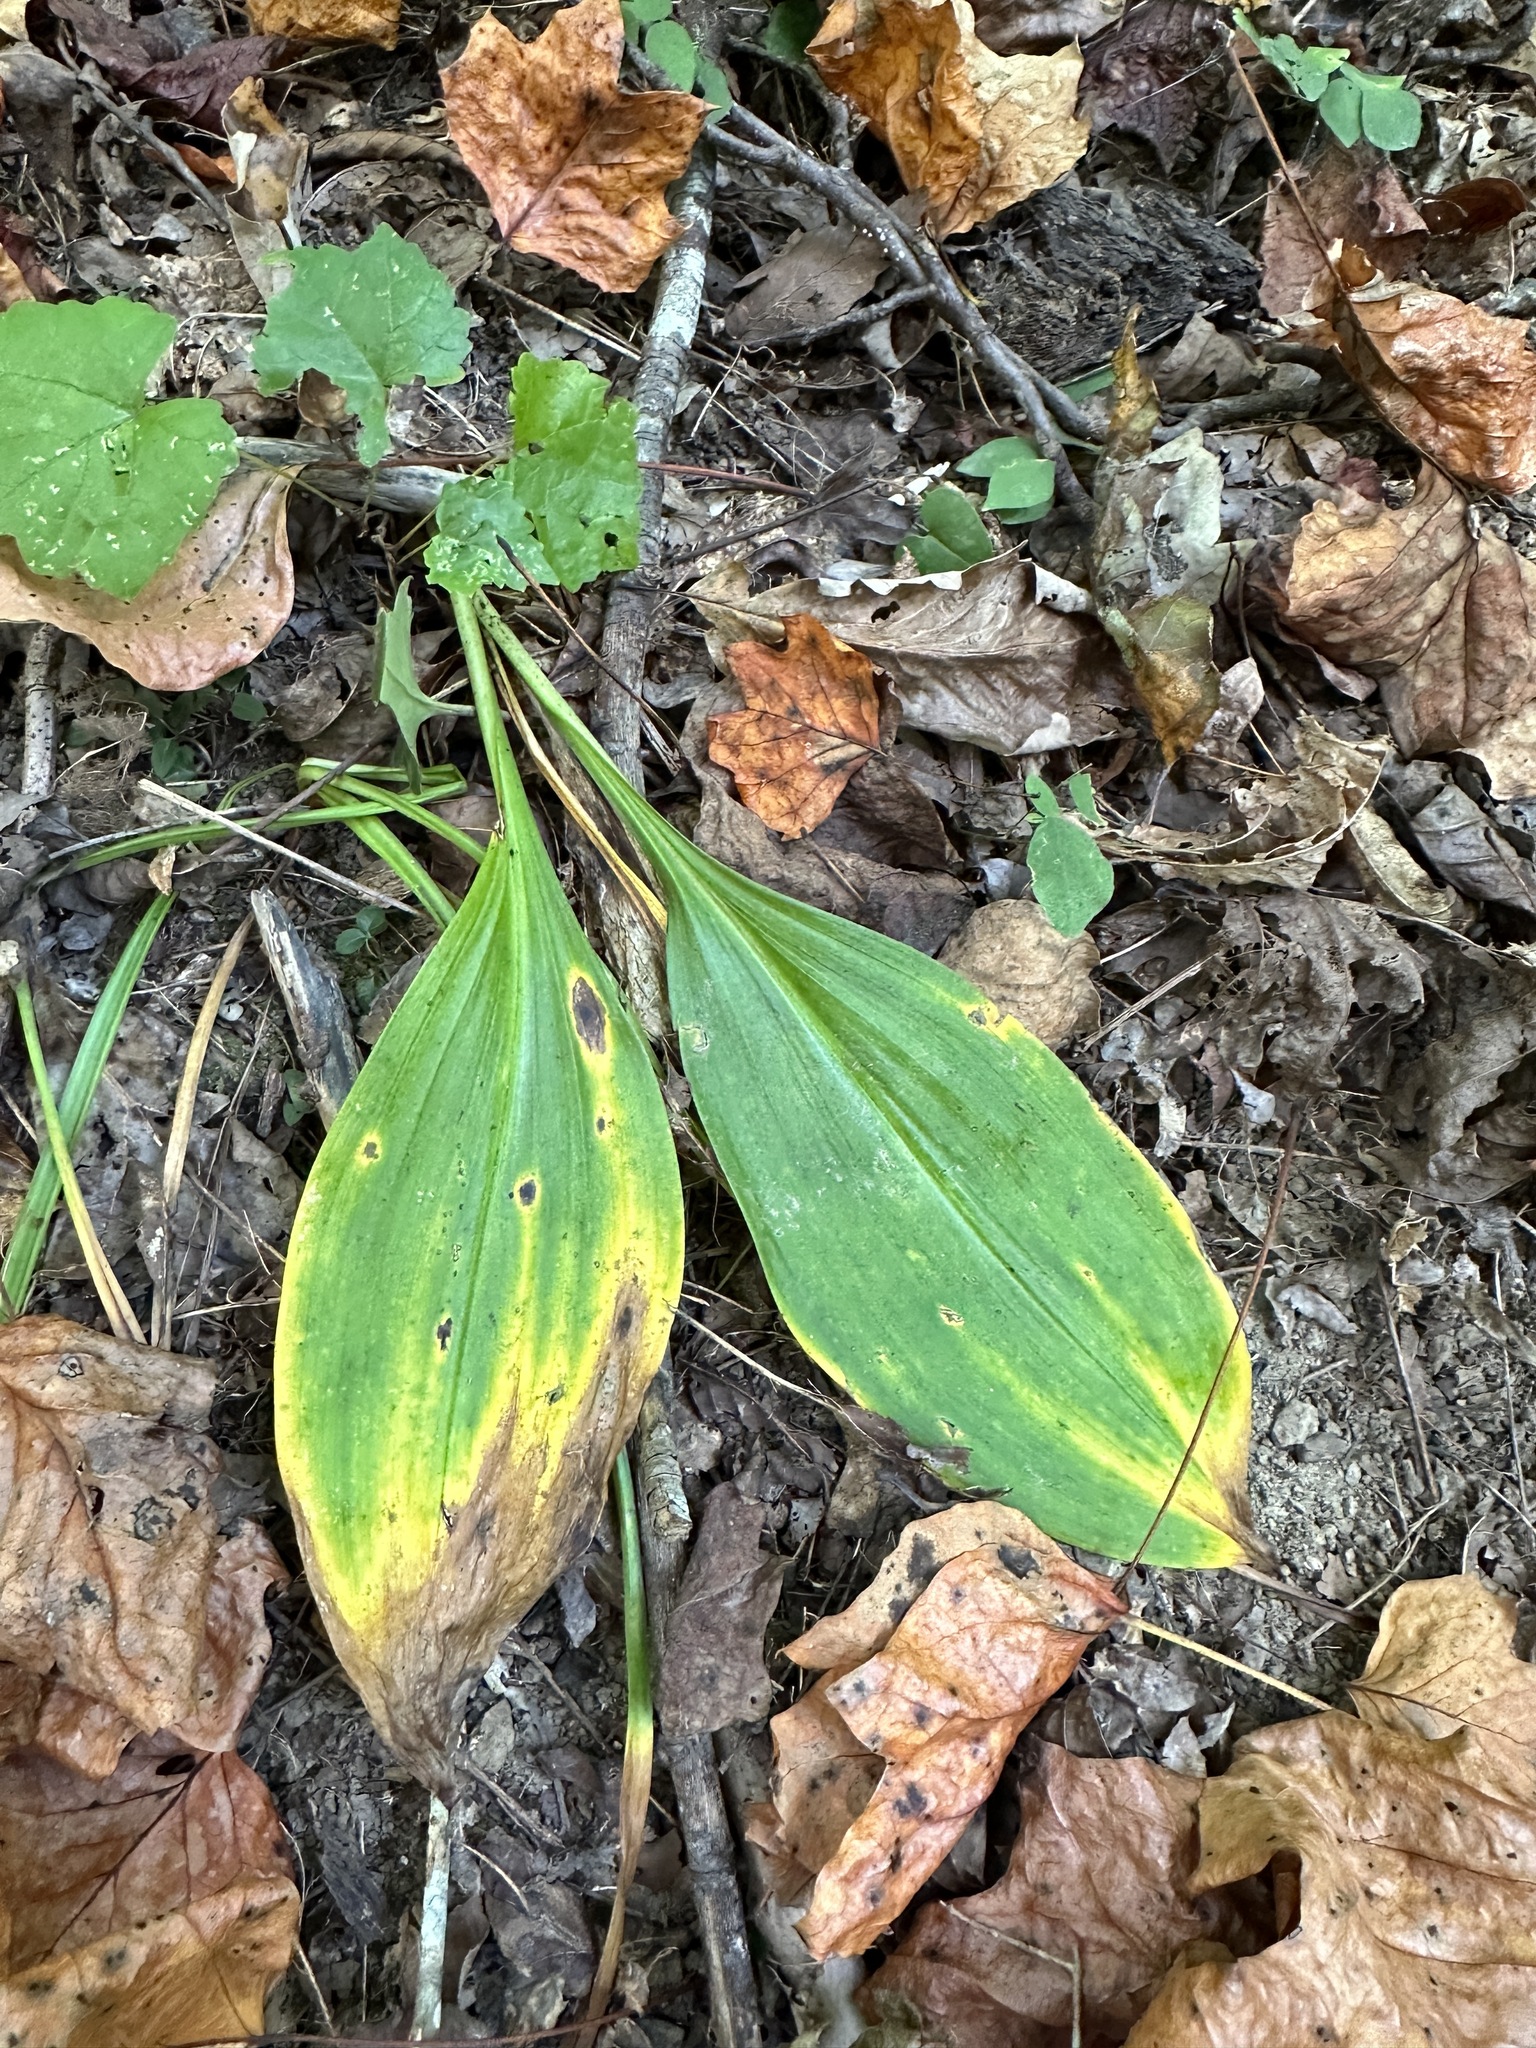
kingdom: Plantae
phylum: Tracheophyta
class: Liliopsida
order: Liliales
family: Melanthiaceae
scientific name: Melanthiaceae
